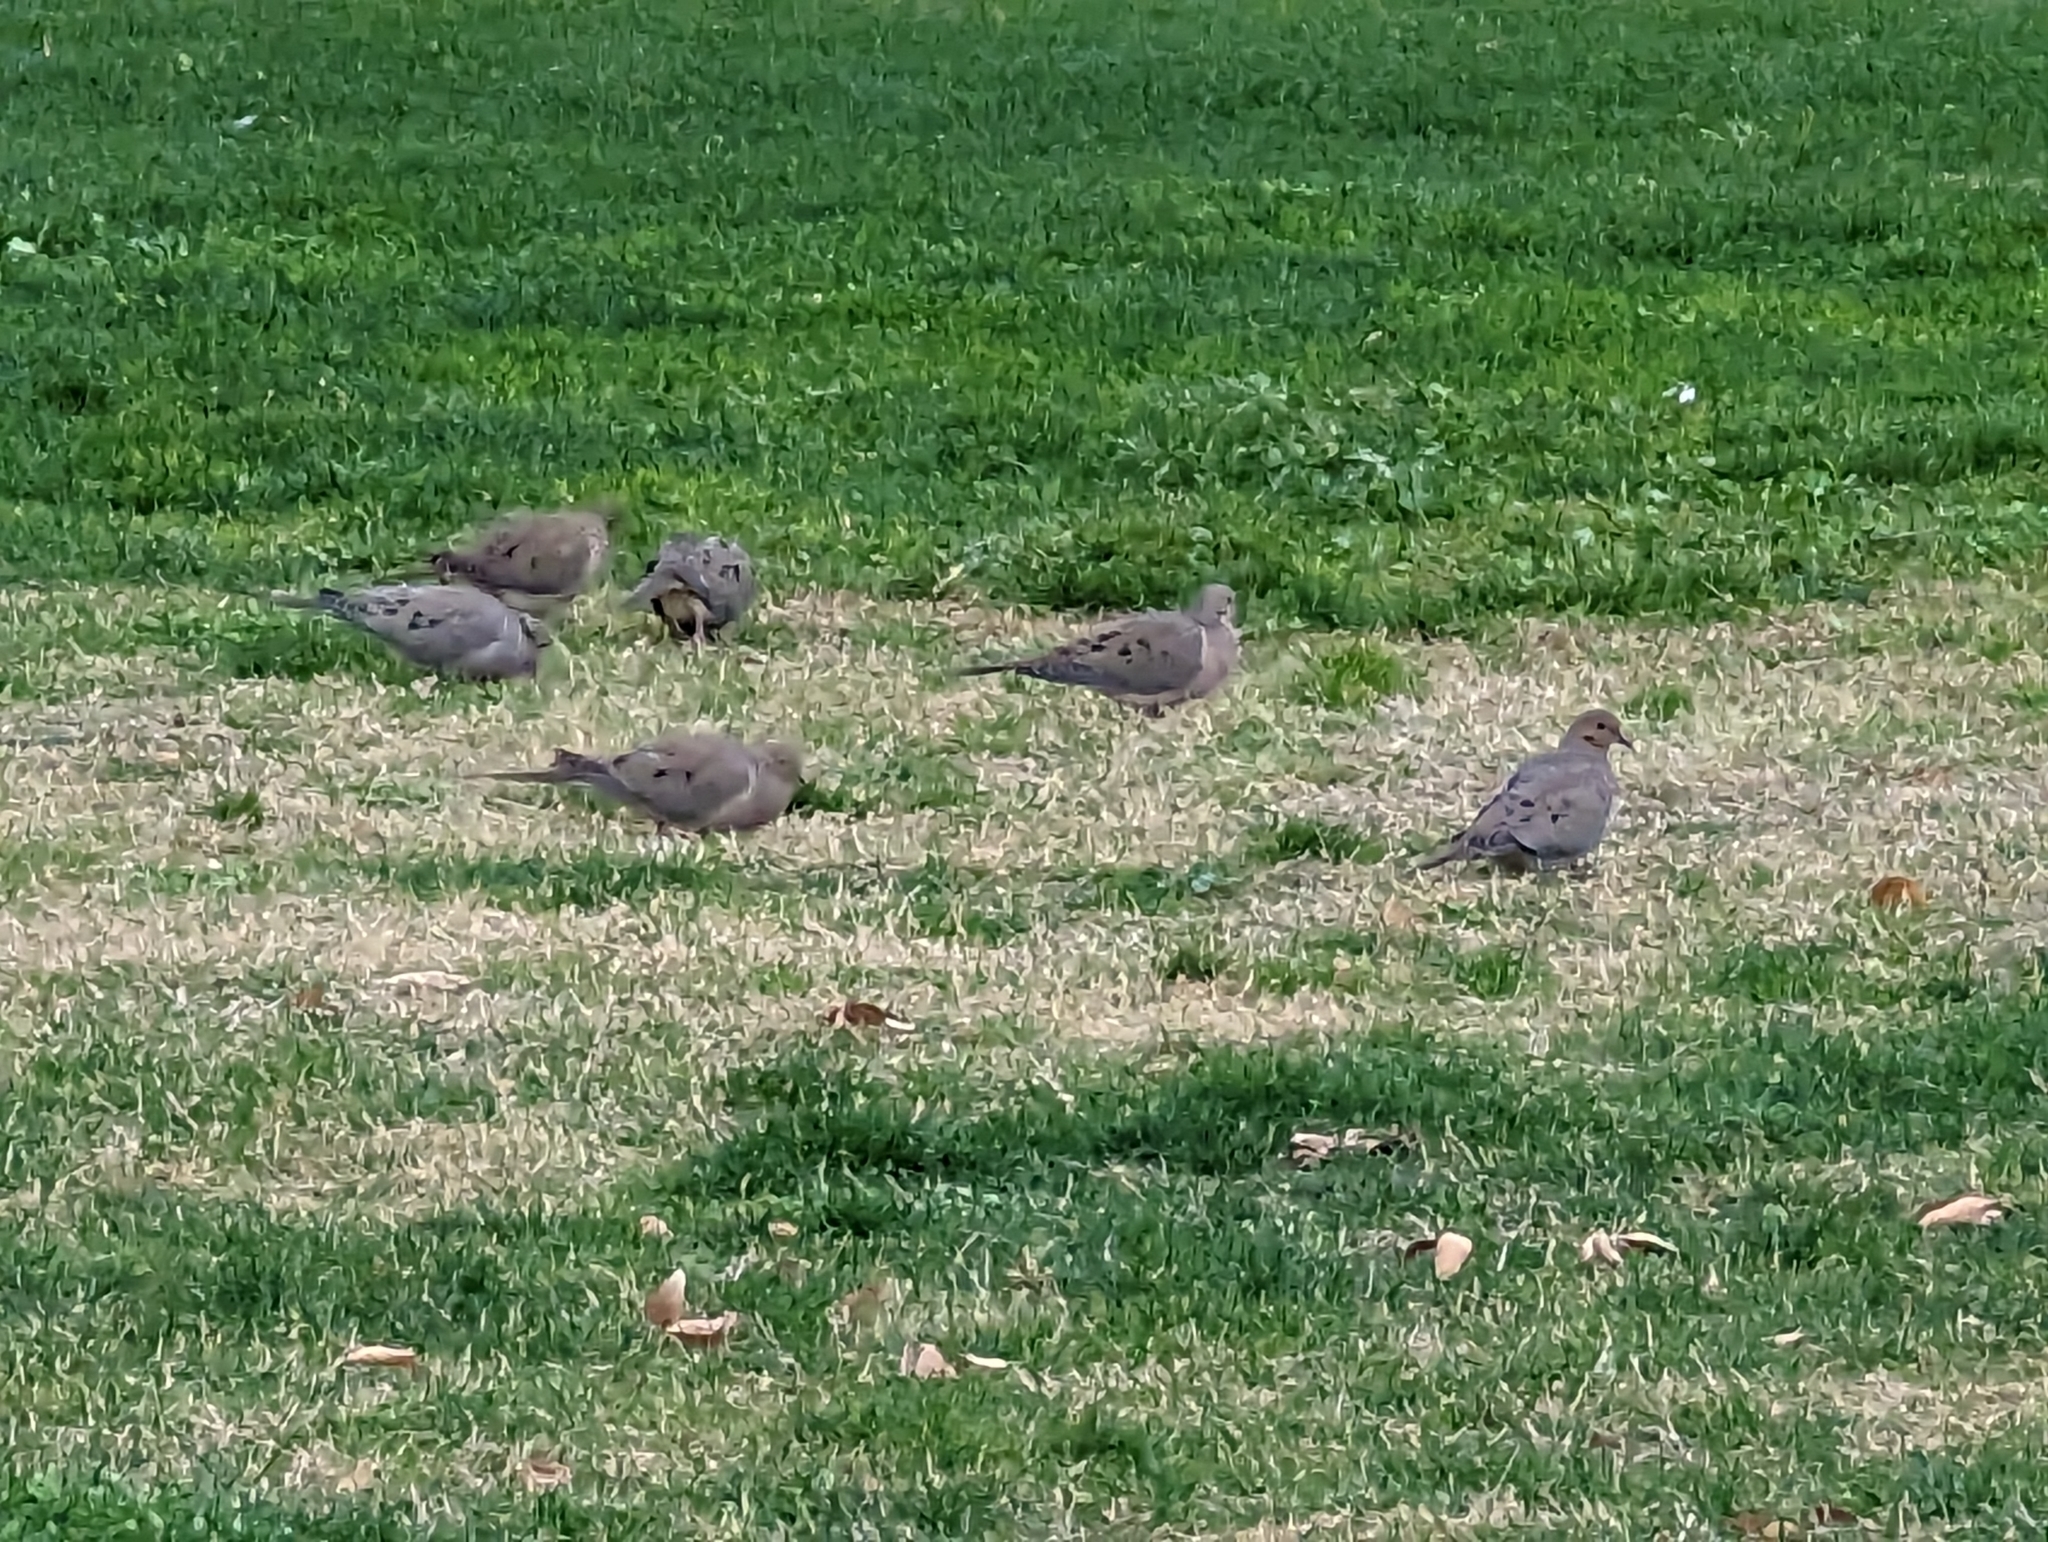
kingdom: Animalia
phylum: Chordata
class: Aves
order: Columbiformes
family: Columbidae
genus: Zenaida
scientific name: Zenaida macroura
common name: Mourning dove
